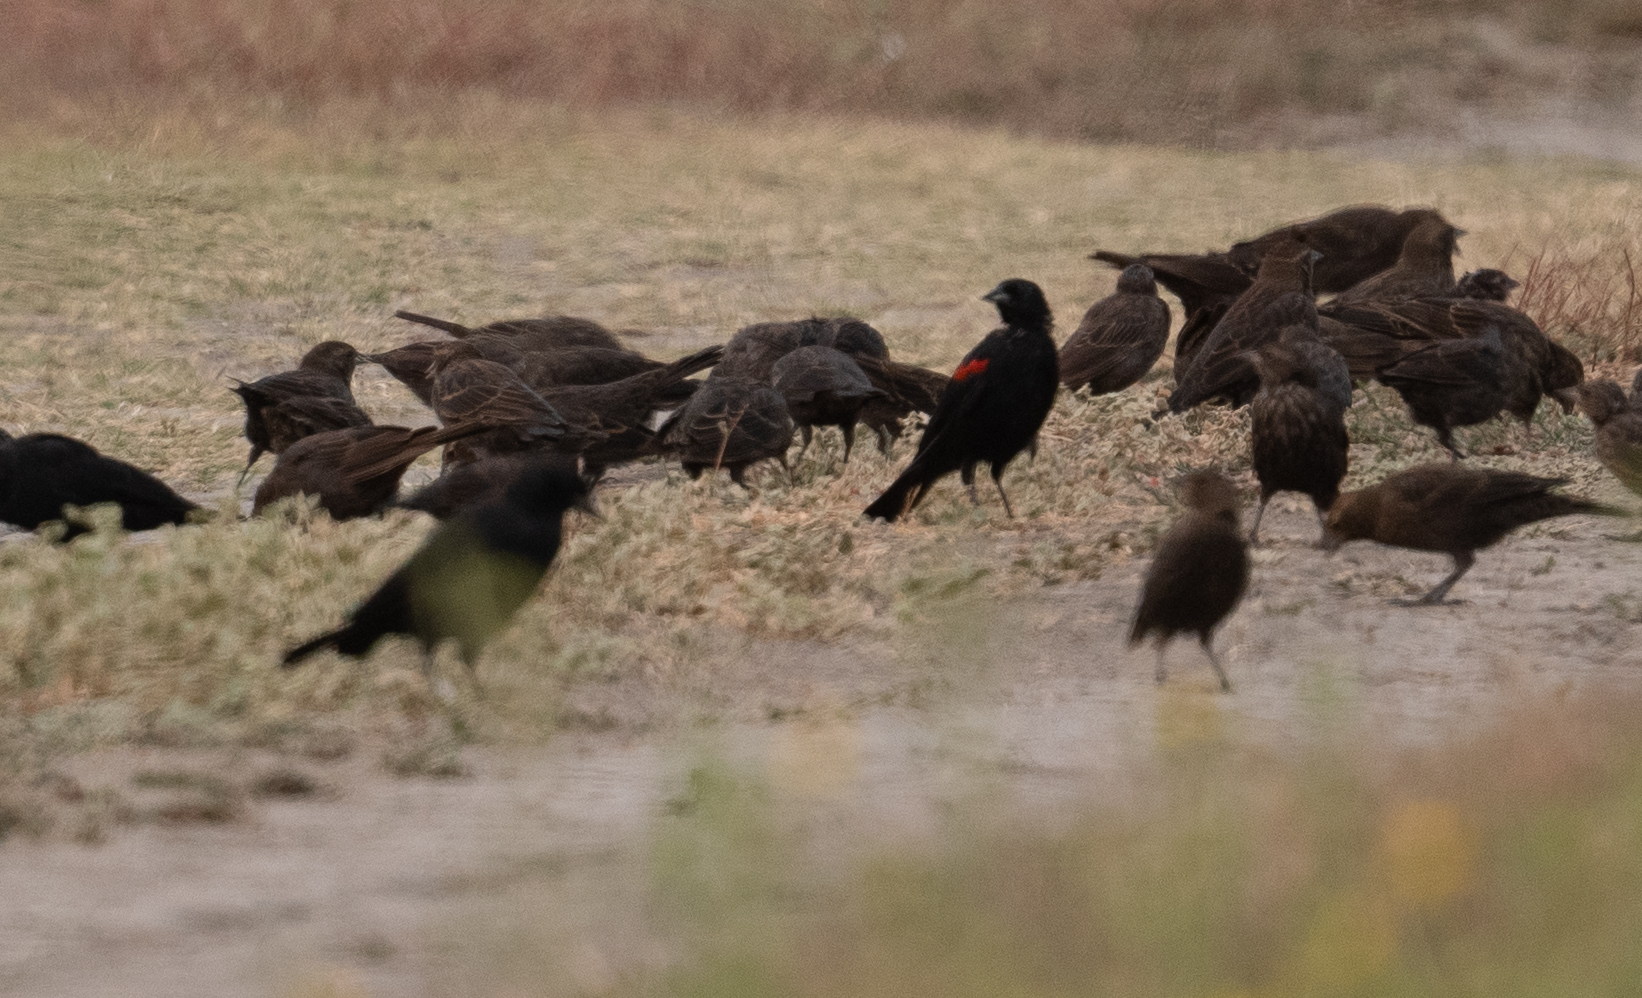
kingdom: Animalia
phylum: Chordata
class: Aves
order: Passeriformes
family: Icteridae
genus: Agelaius
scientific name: Agelaius phoeniceus
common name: Red-winged blackbird
